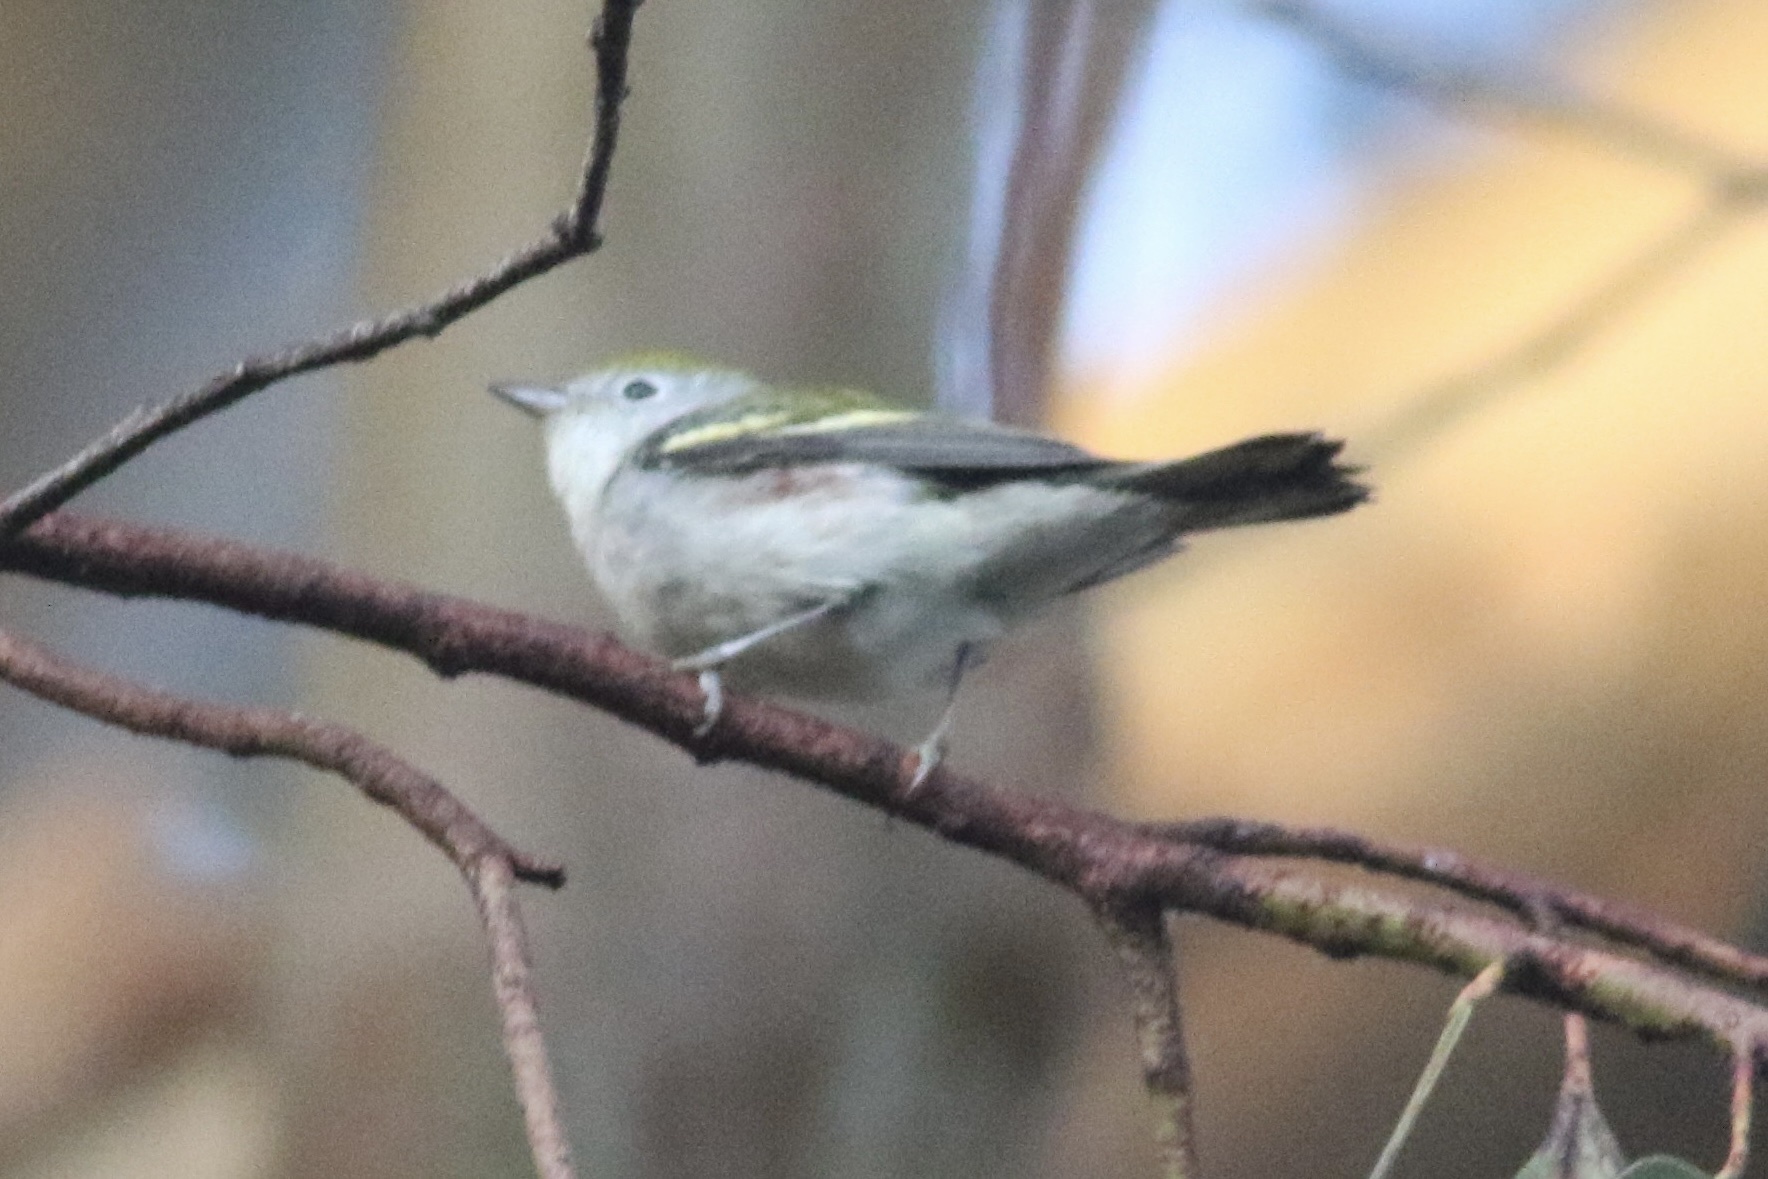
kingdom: Animalia
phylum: Chordata
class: Aves
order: Passeriformes
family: Parulidae
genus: Setophaga
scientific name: Setophaga pensylvanica
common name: Chestnut-sided warbler
